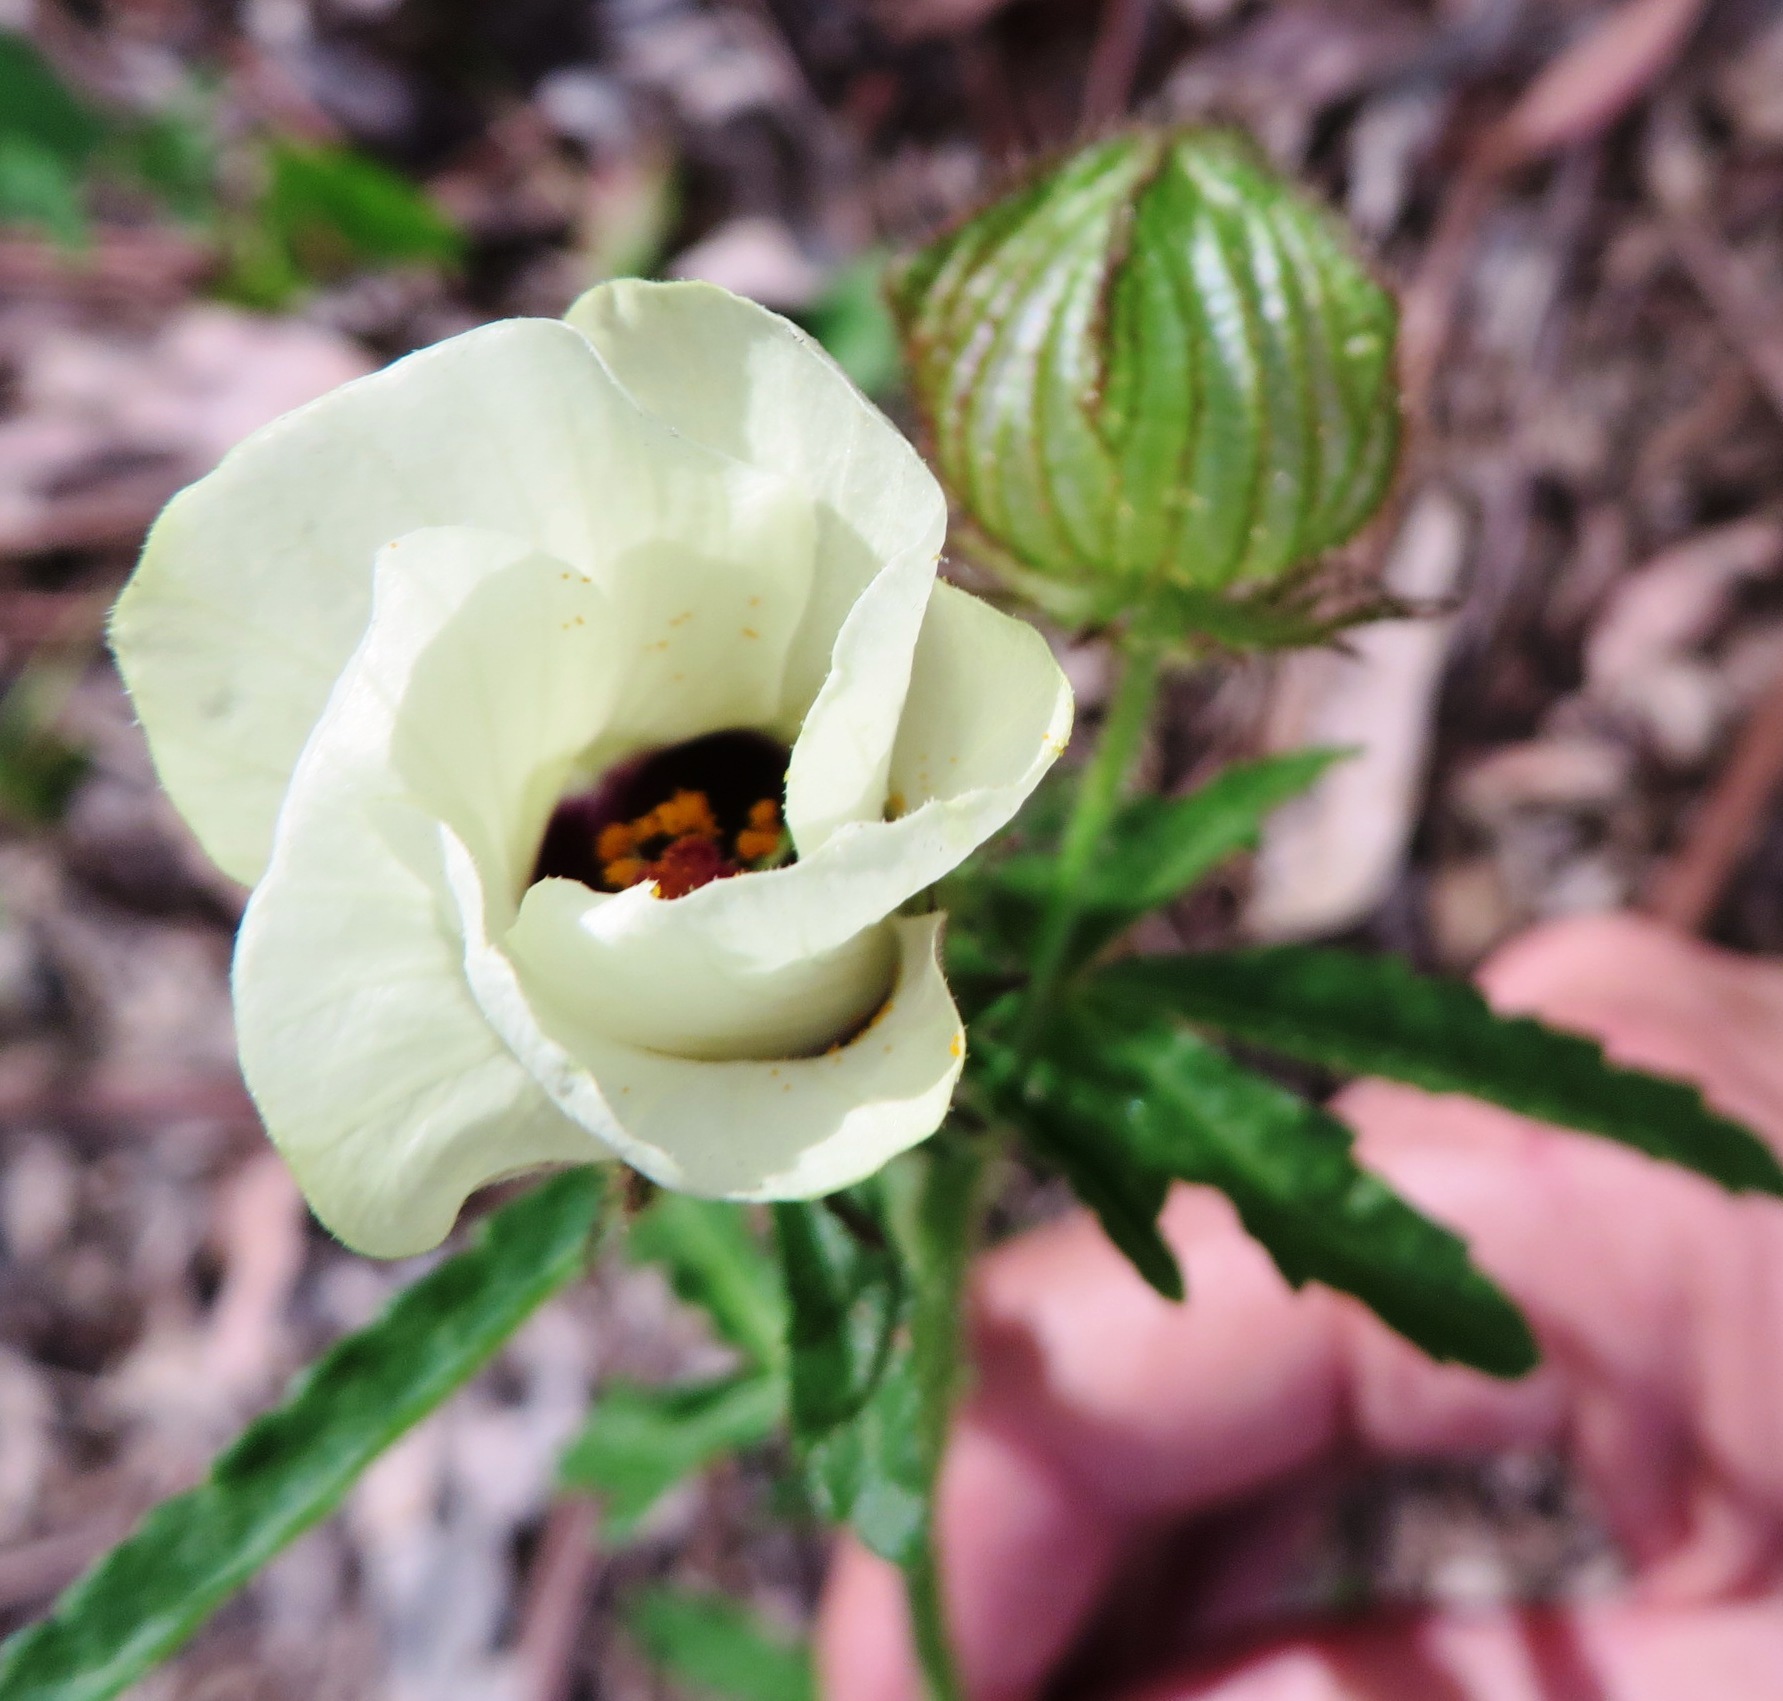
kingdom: Plantae
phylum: Tracheophyta
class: Magnoliopsida
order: Malvales
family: Malvaceae
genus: Hibiscus
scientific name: Hibiscus trionum
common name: Bladder ketmia
